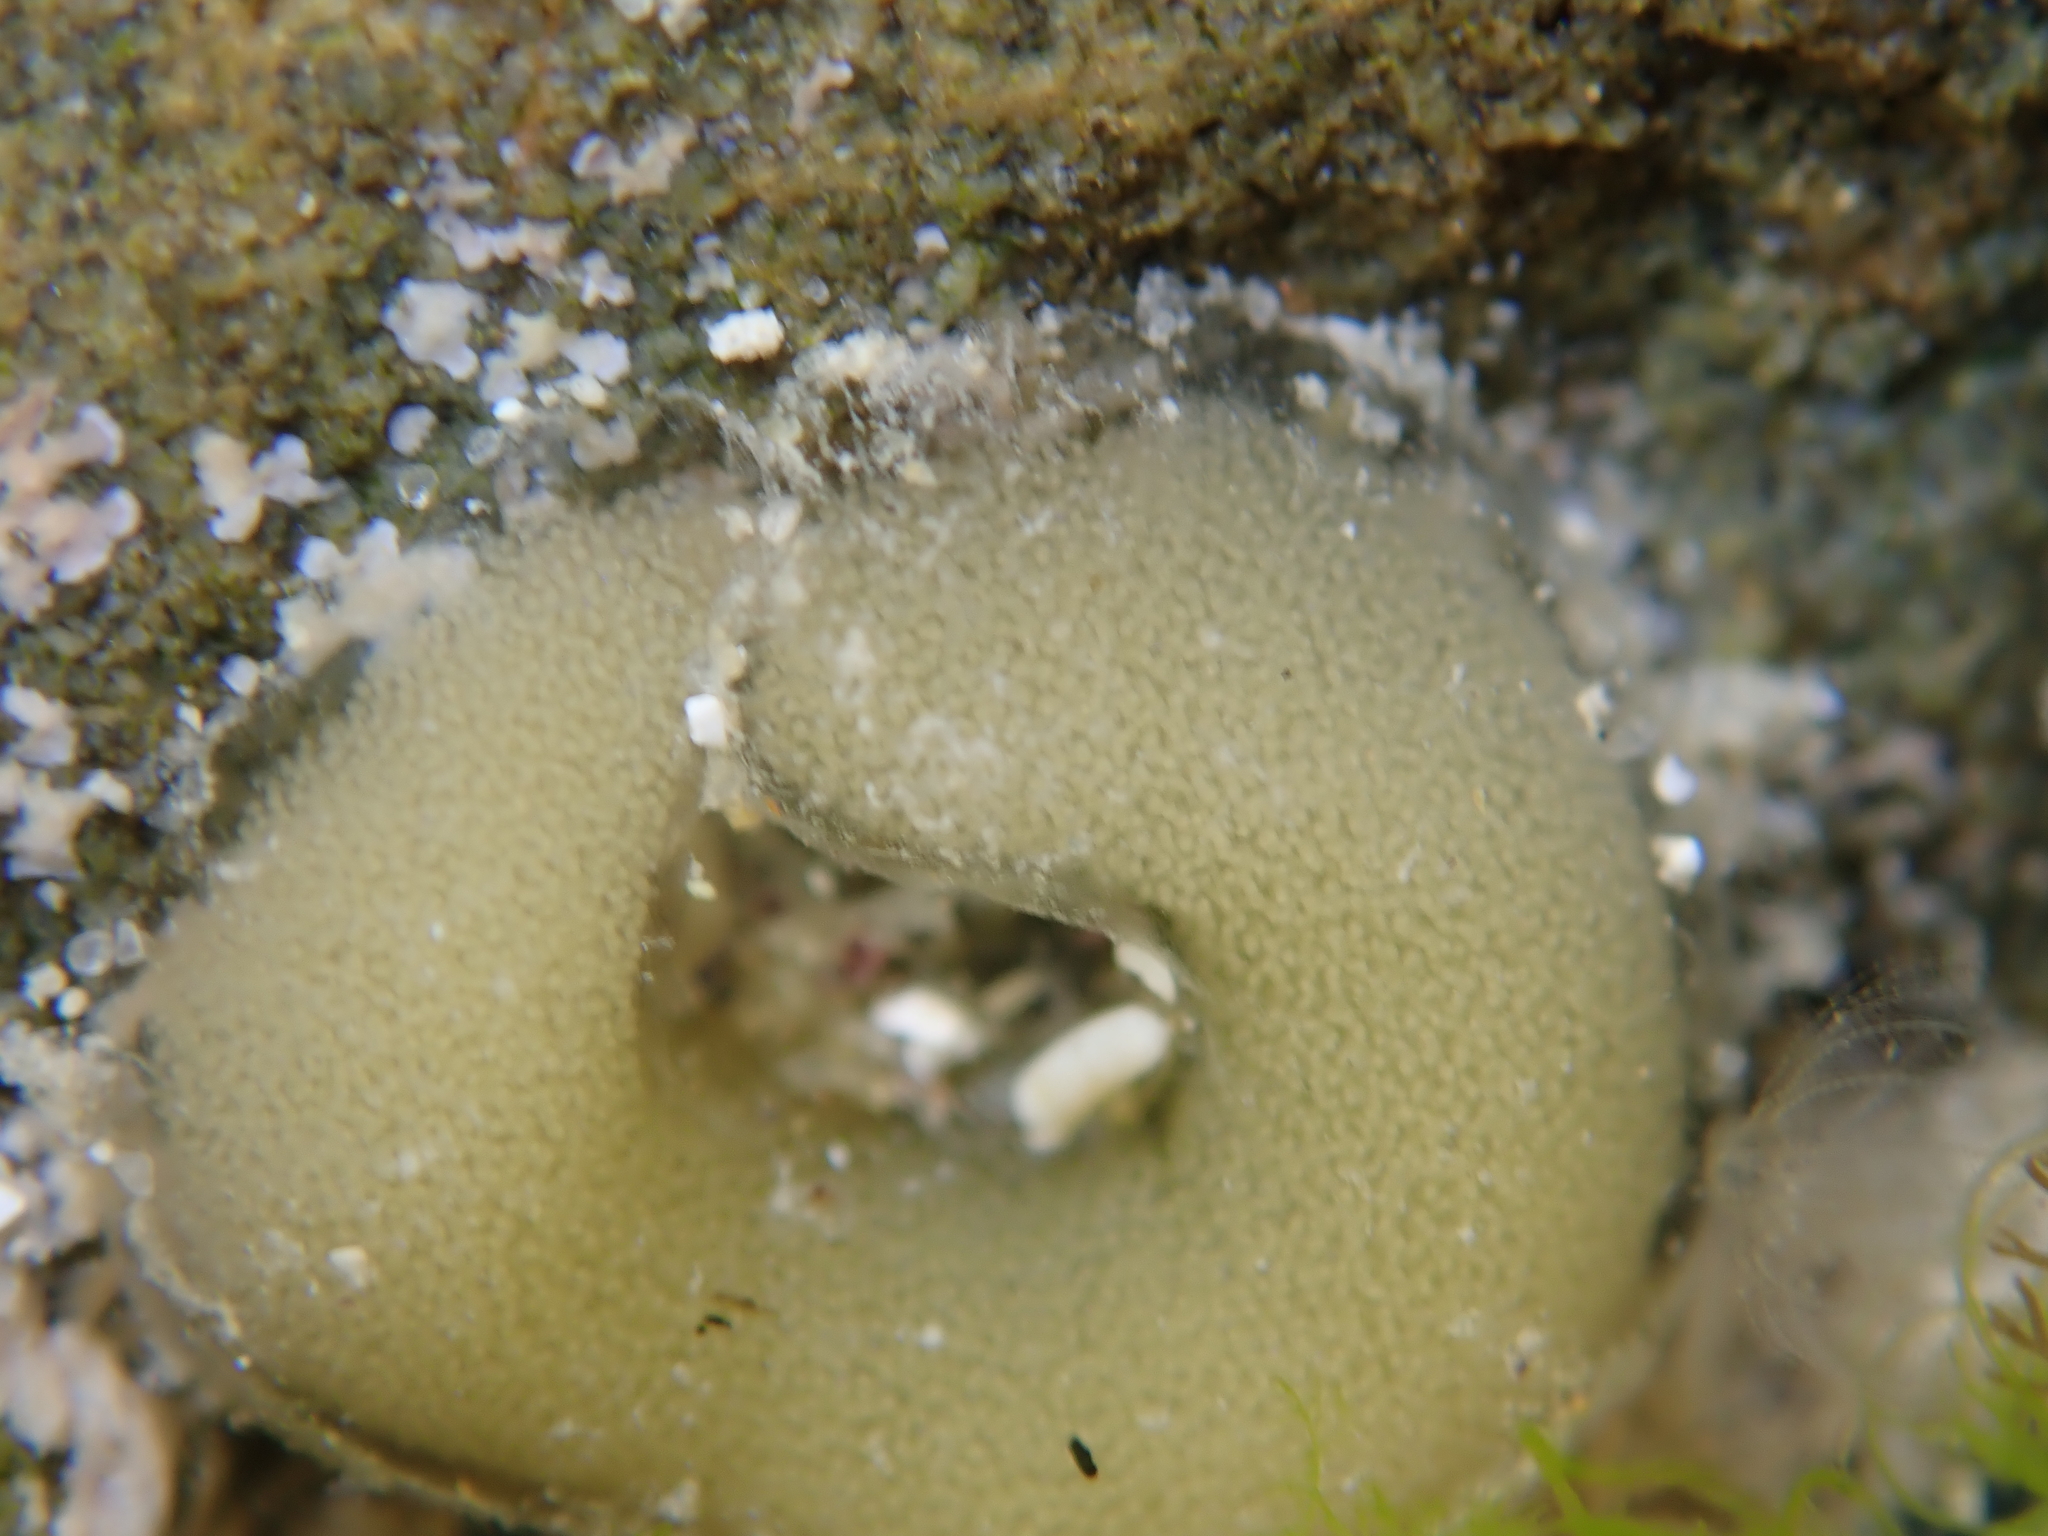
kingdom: Animalia
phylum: Mollusca
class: Gastropoda
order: Siphonariida
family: Siphonariidae
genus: Siphonaria
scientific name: Siphonaria australis
